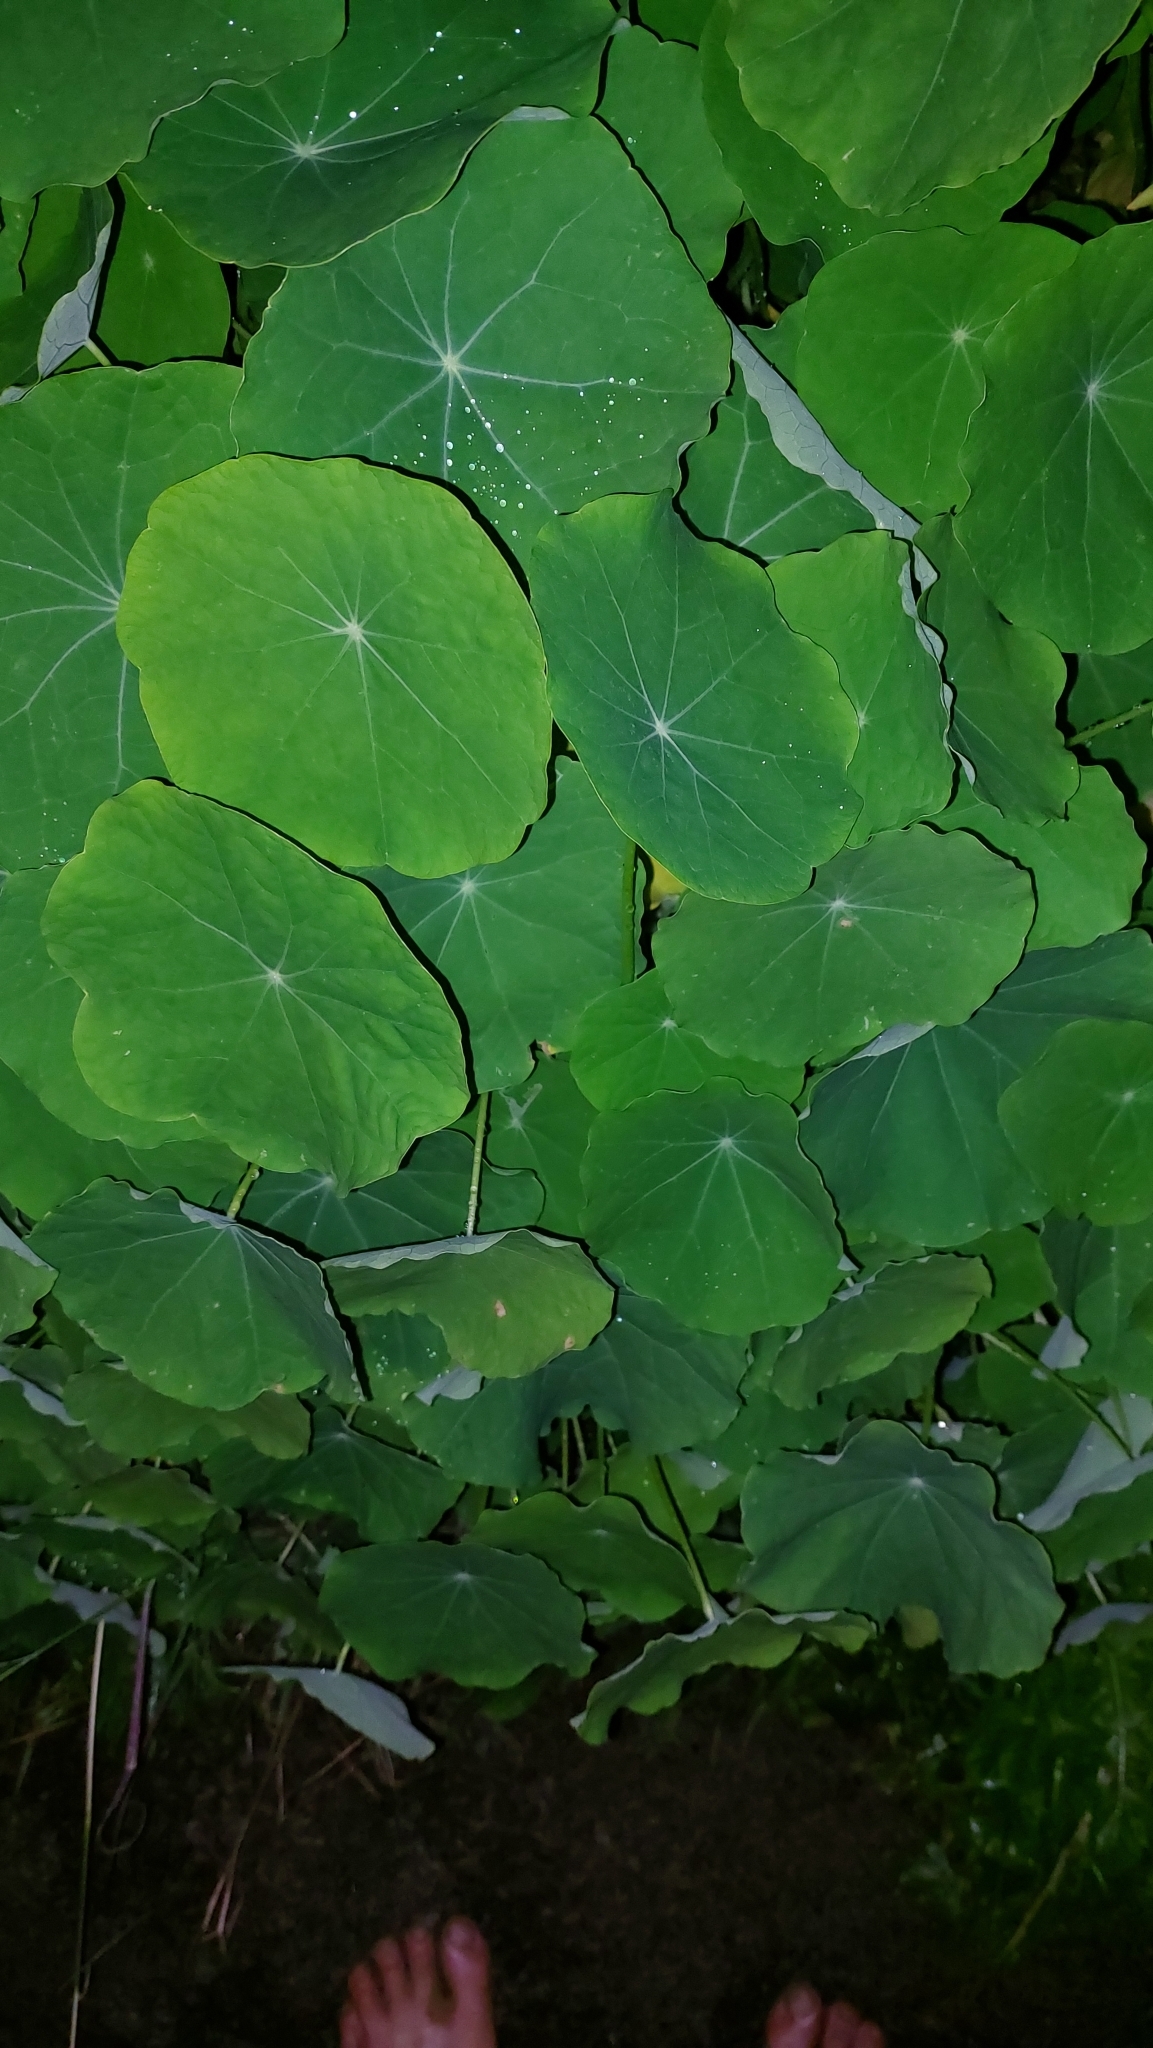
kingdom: Plantae
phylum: Tracheophyta
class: Magnoliopsida
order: Brassicales
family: Tropaeolaceae
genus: Tropaeolum
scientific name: Tropaeolum majus
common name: Nasturtium
